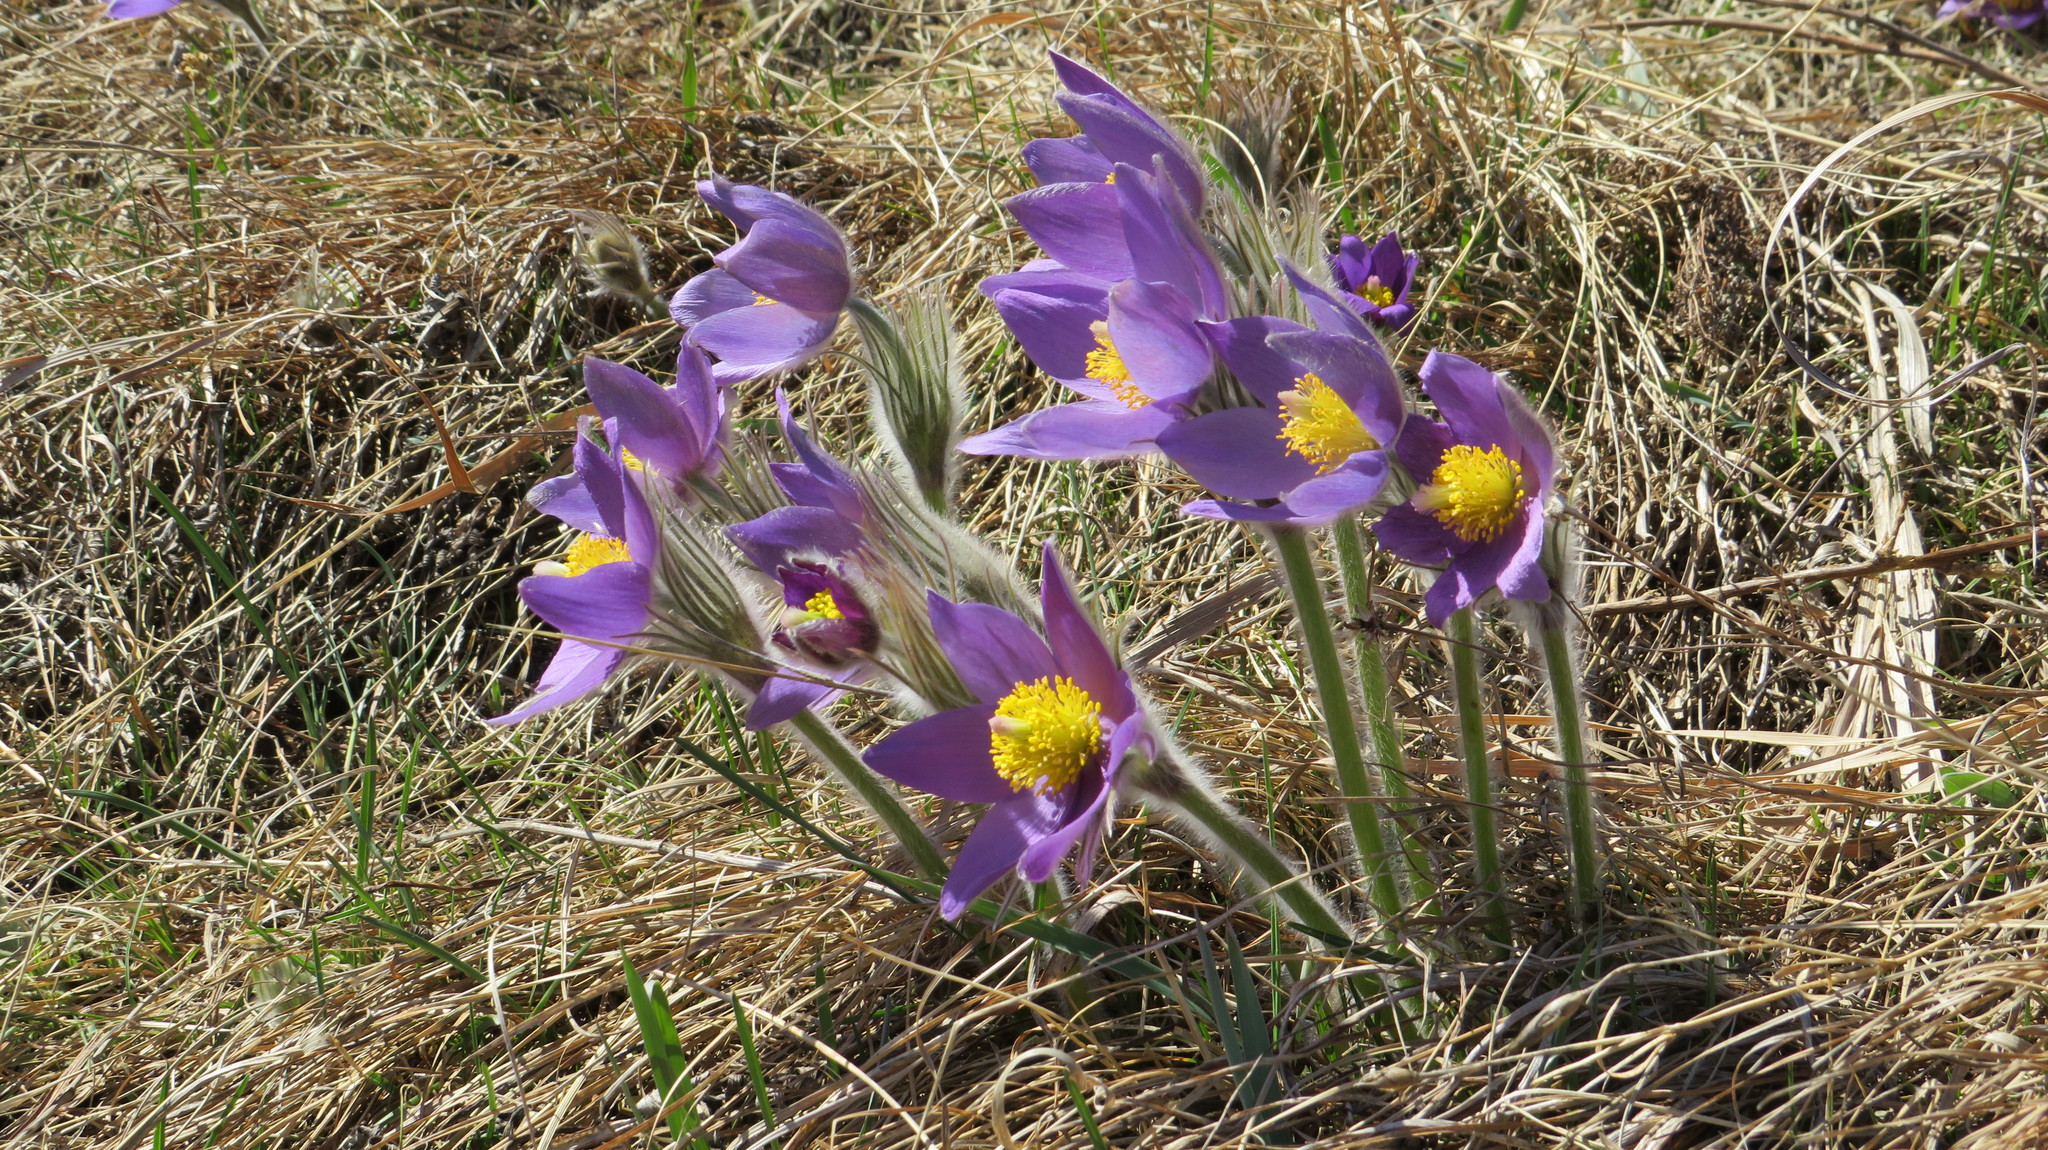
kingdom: Plantae
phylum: Tracheophyta
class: Magnoliopsida
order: Ranunculales
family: Ranunculaceae
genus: Pulsatilla
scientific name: Pulsatilla patens
